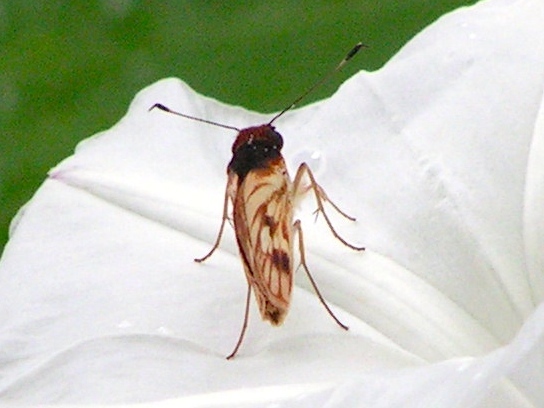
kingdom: Animalia
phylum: Arthropoda
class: Insecta
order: Lepidoptera
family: Hesperiidae
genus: Troyus
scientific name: Troyus fantasos
